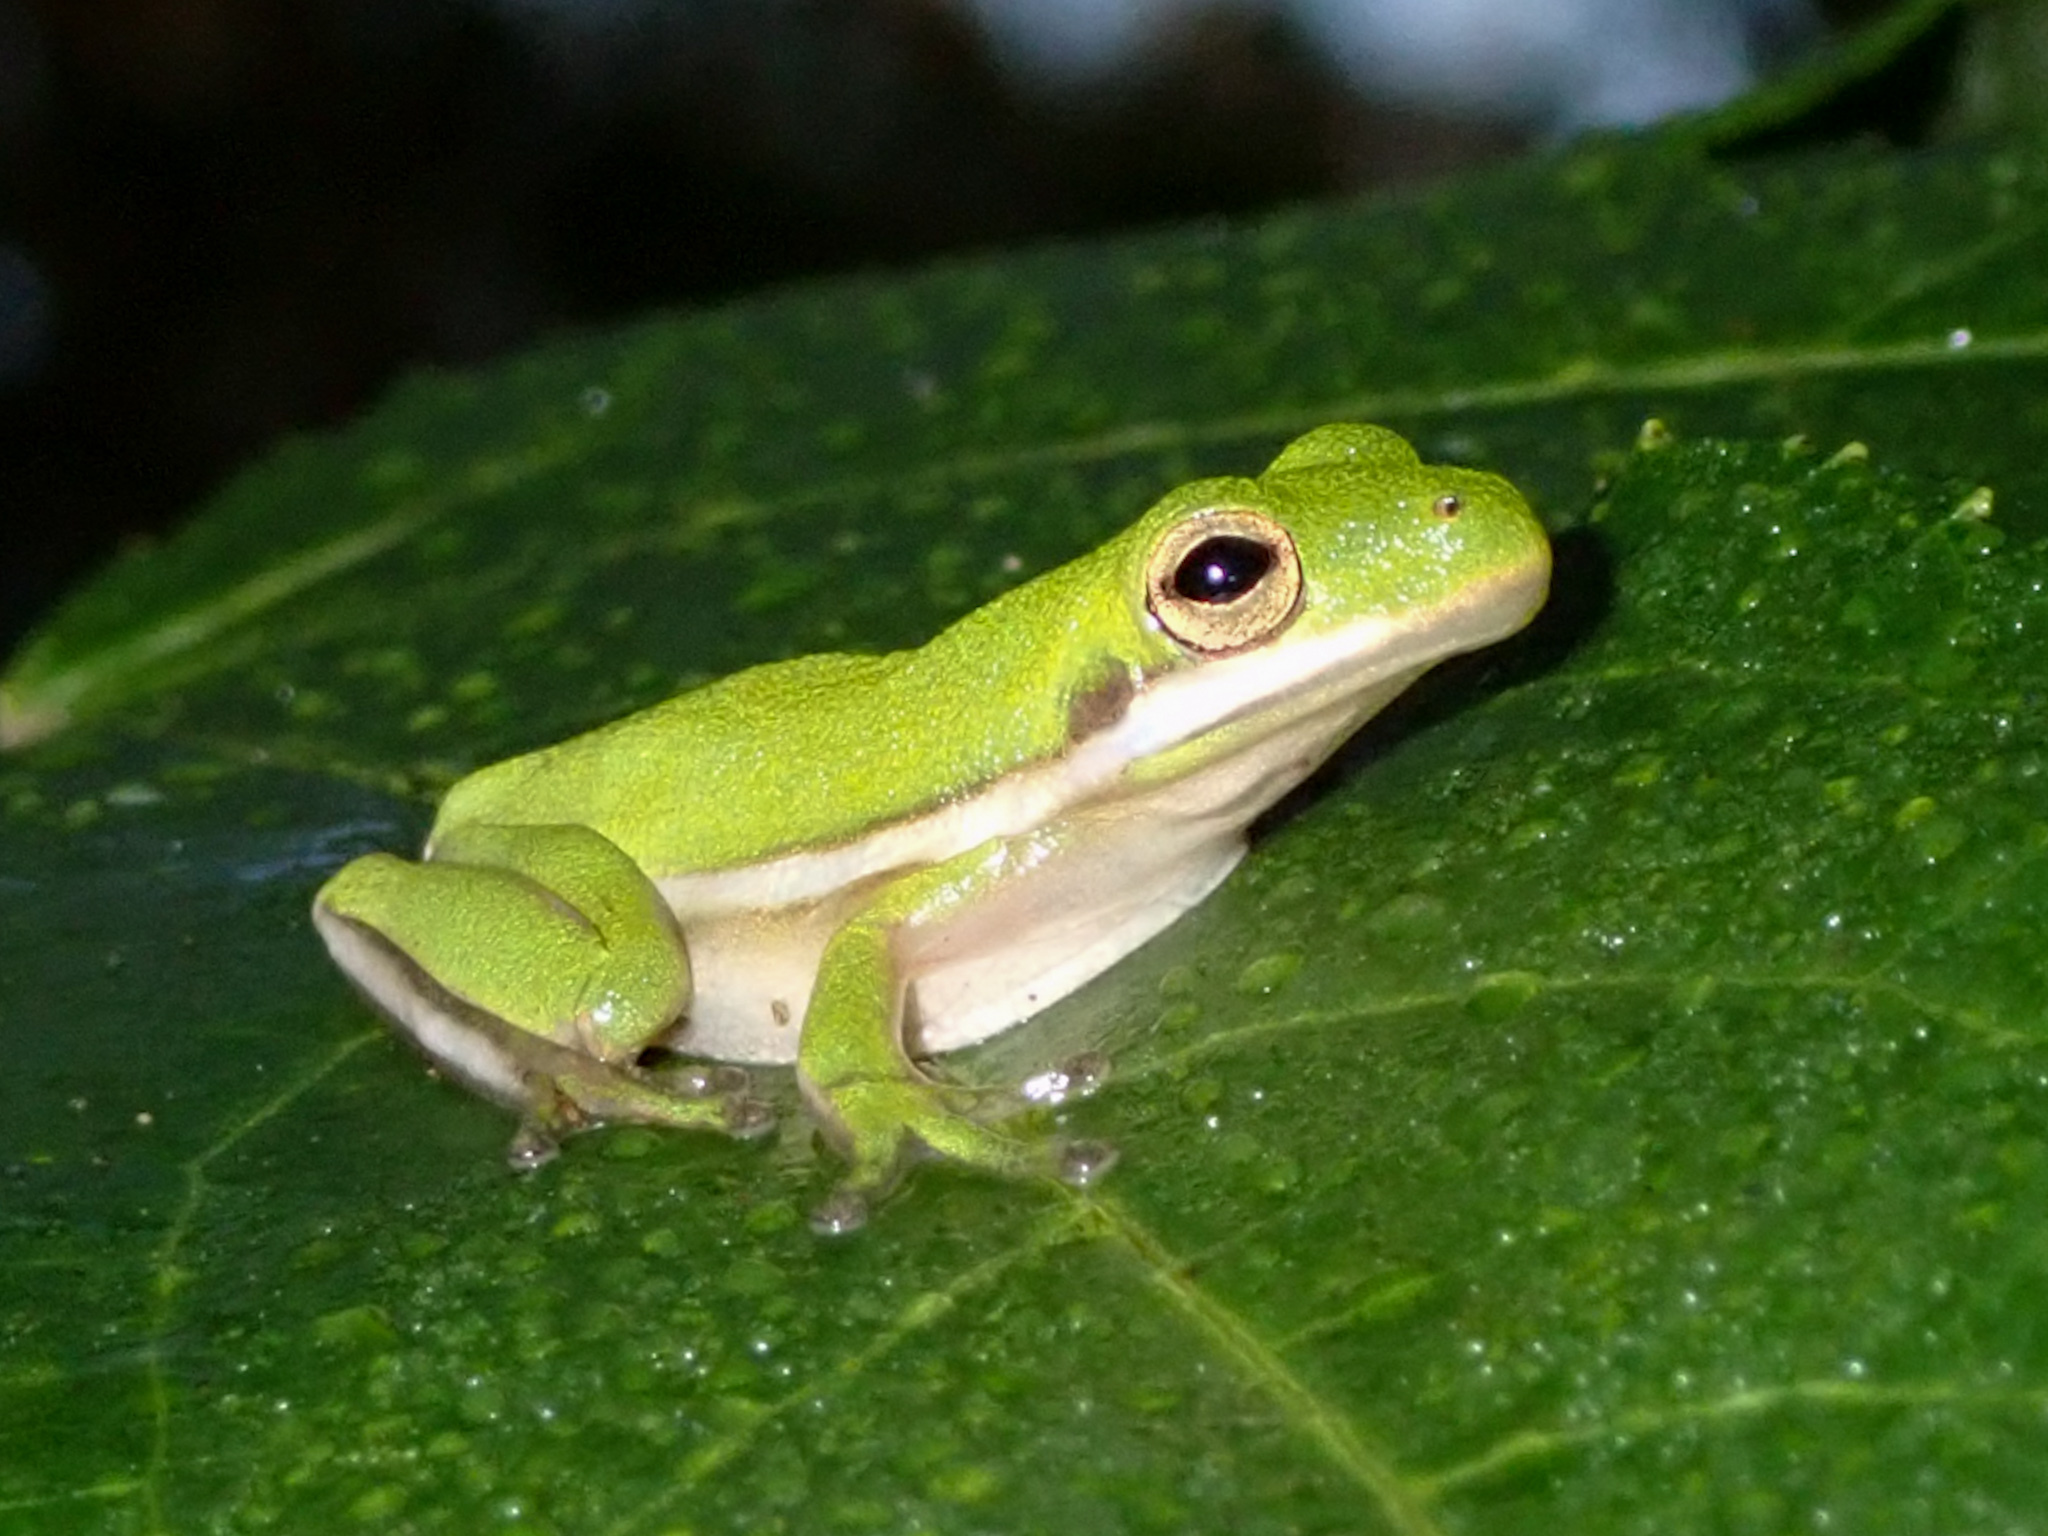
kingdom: Animalia
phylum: Chordata
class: Amphibia
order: Anura
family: Hylidae
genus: Dryophytes
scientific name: Dryophytes cinereus
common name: Green treefrog
